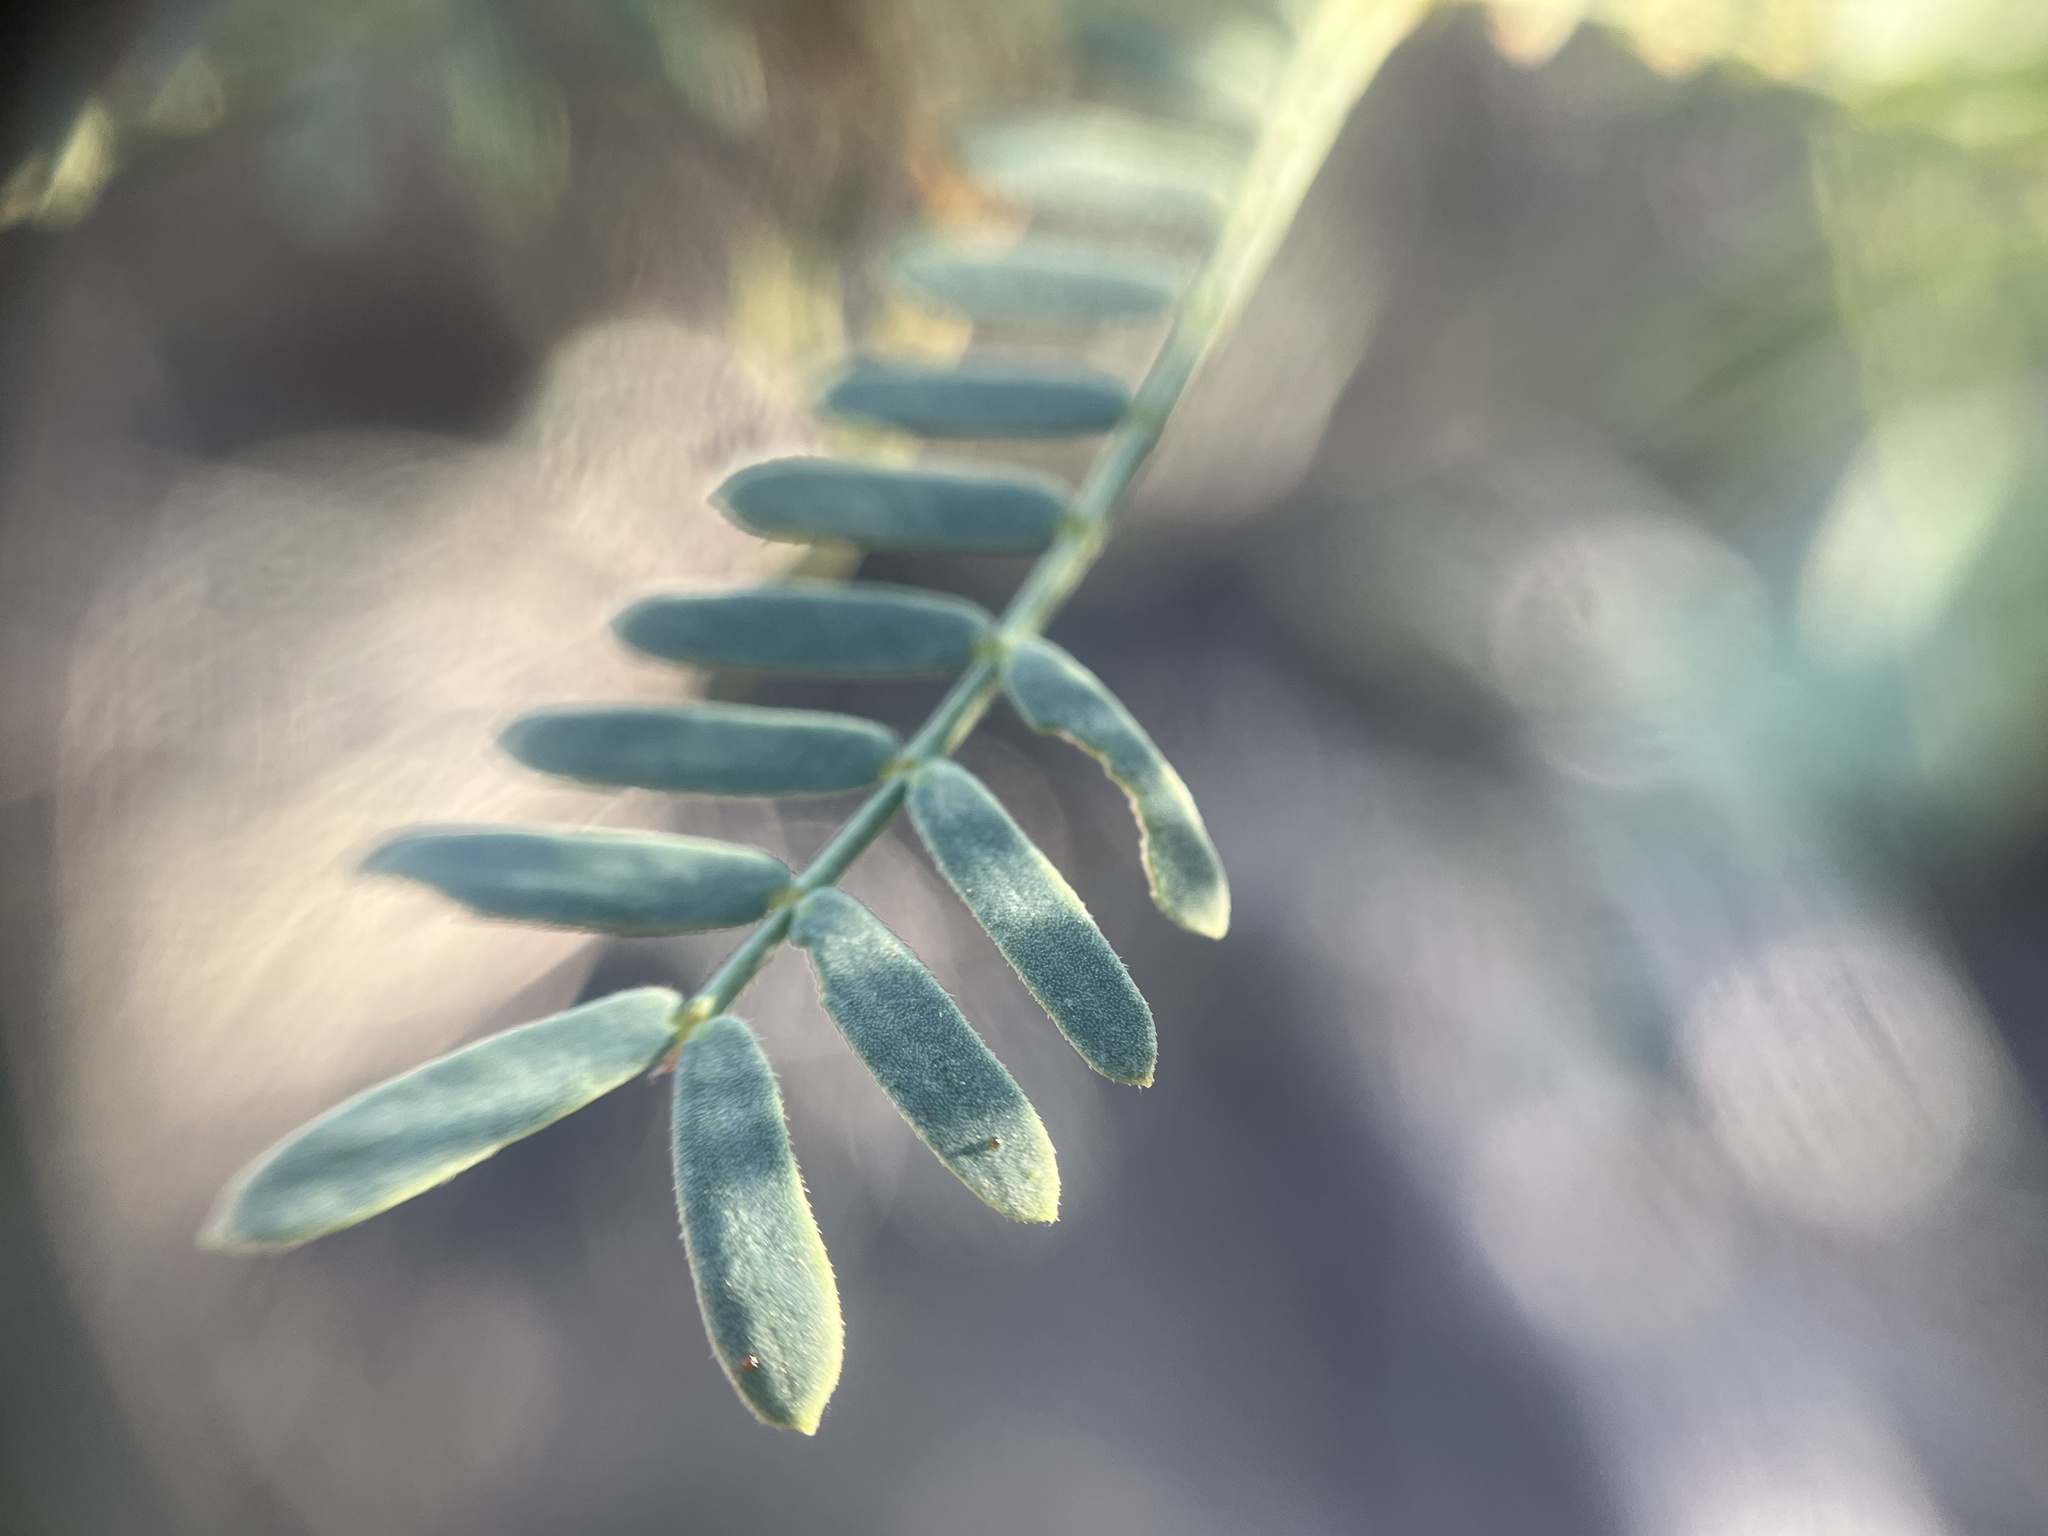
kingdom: Plantae
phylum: Tracheophyta
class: Magnoliopsida
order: Fabales
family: Fabaceae
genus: Prosopis
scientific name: Prosopis velutina
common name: Velvet mesquite
